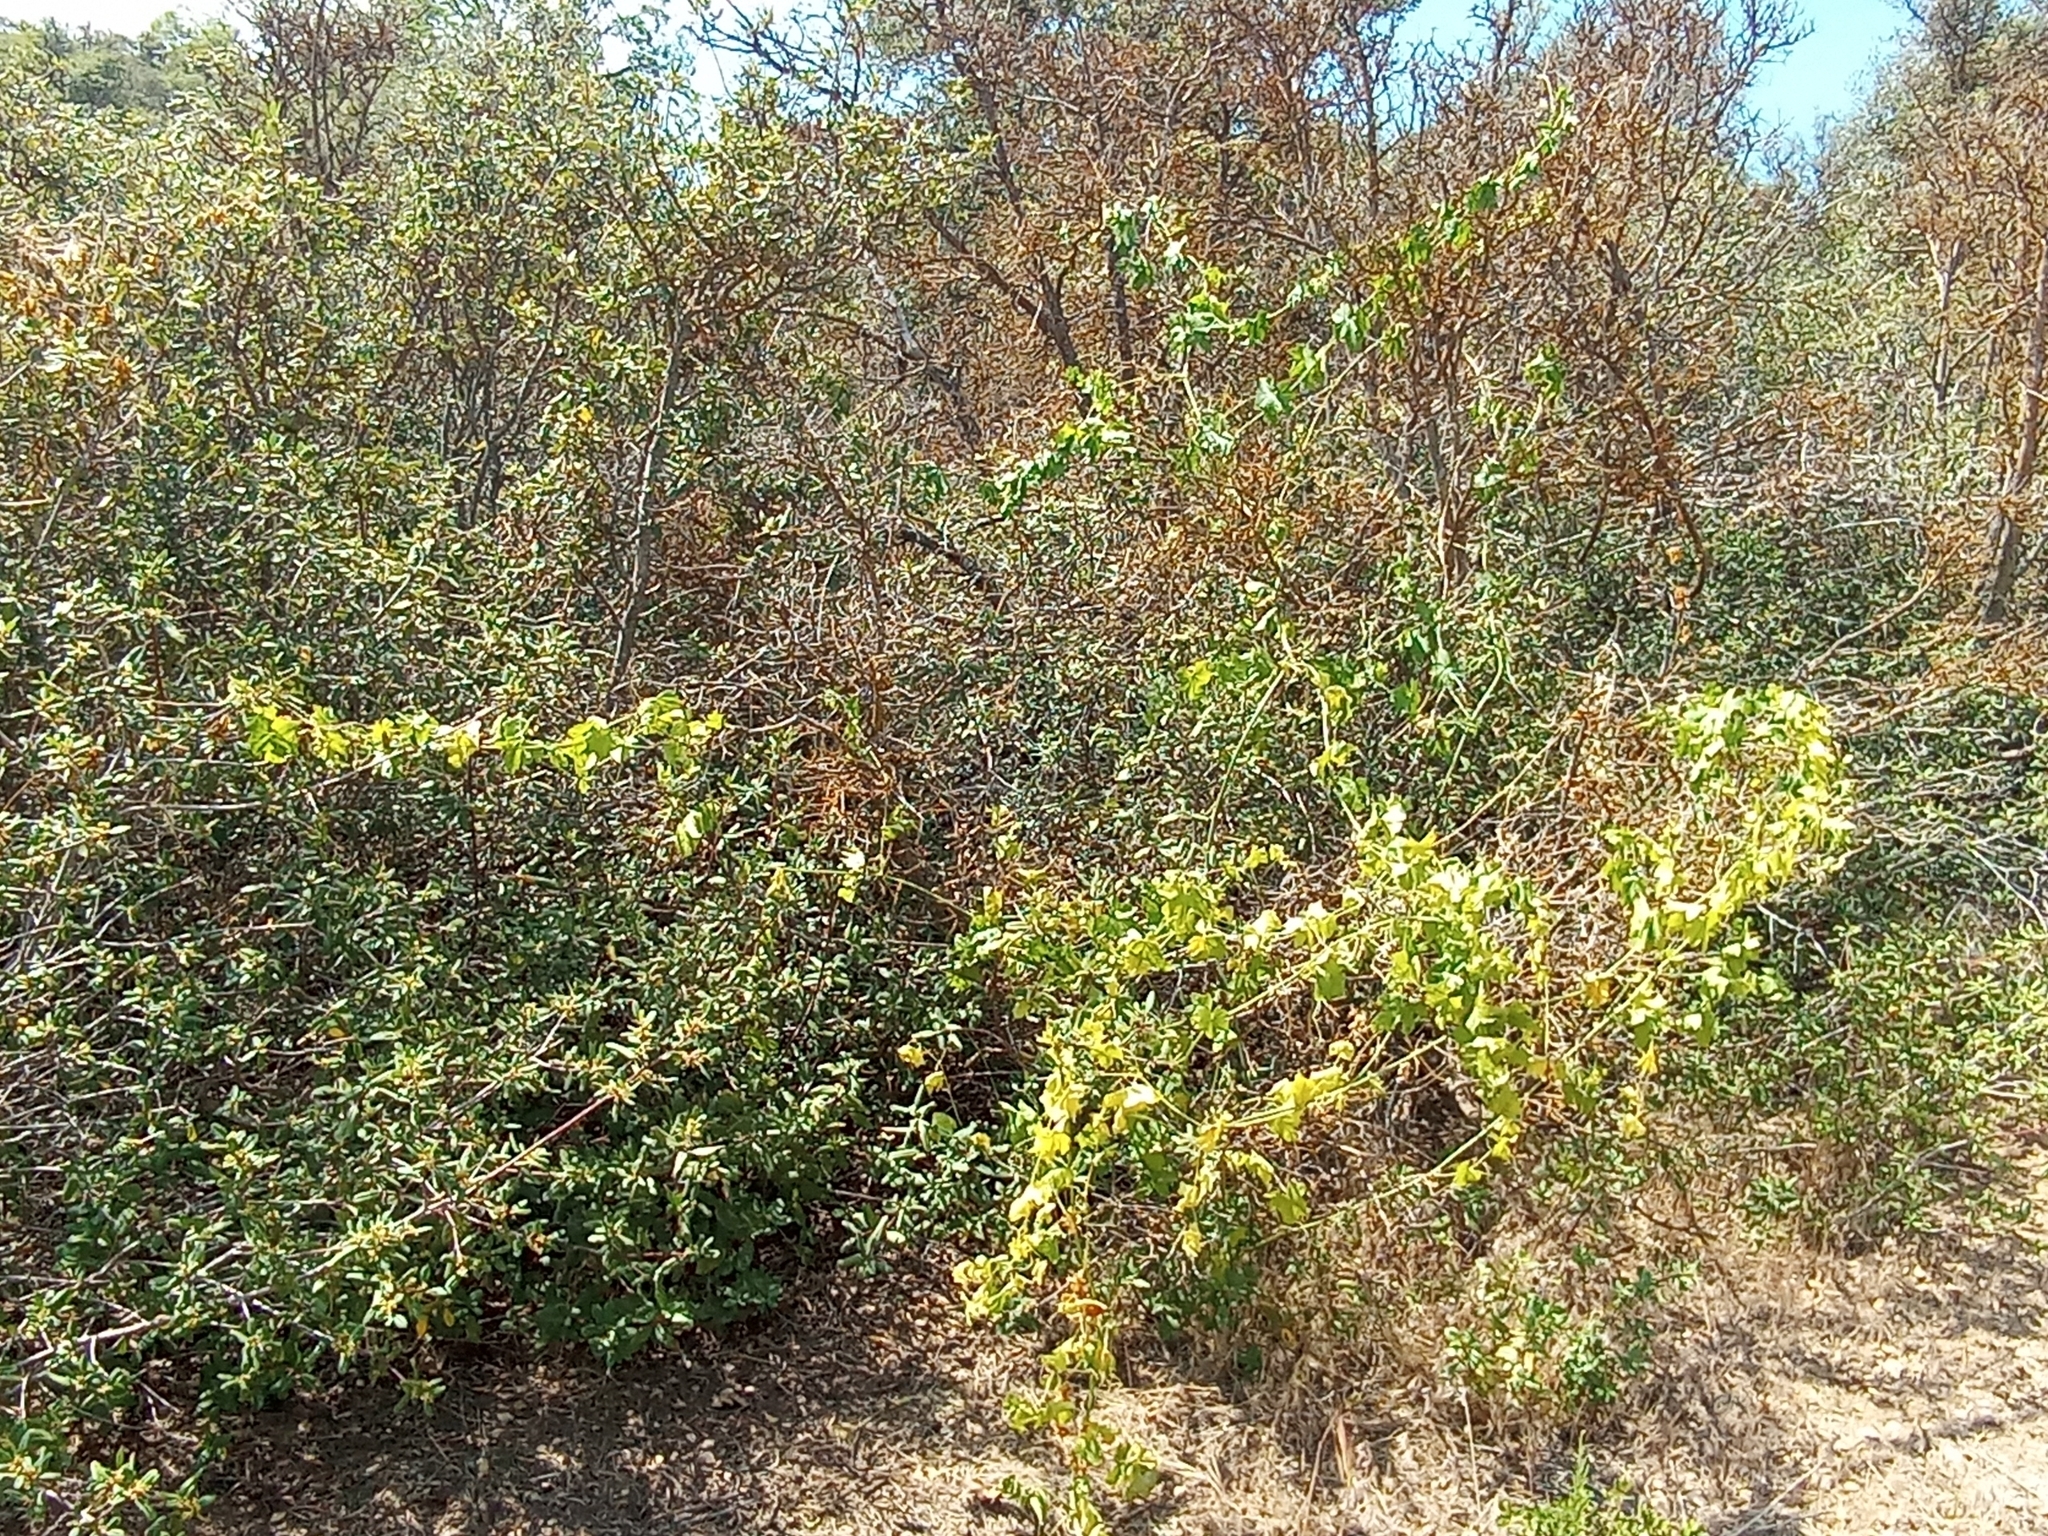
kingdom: Plantae
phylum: Tracheophyta
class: Magnoliopsida
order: Cucurbitales
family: Cucurbitaceae
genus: Marah
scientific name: Marah macrocarpa
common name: Cucamonga manroot
